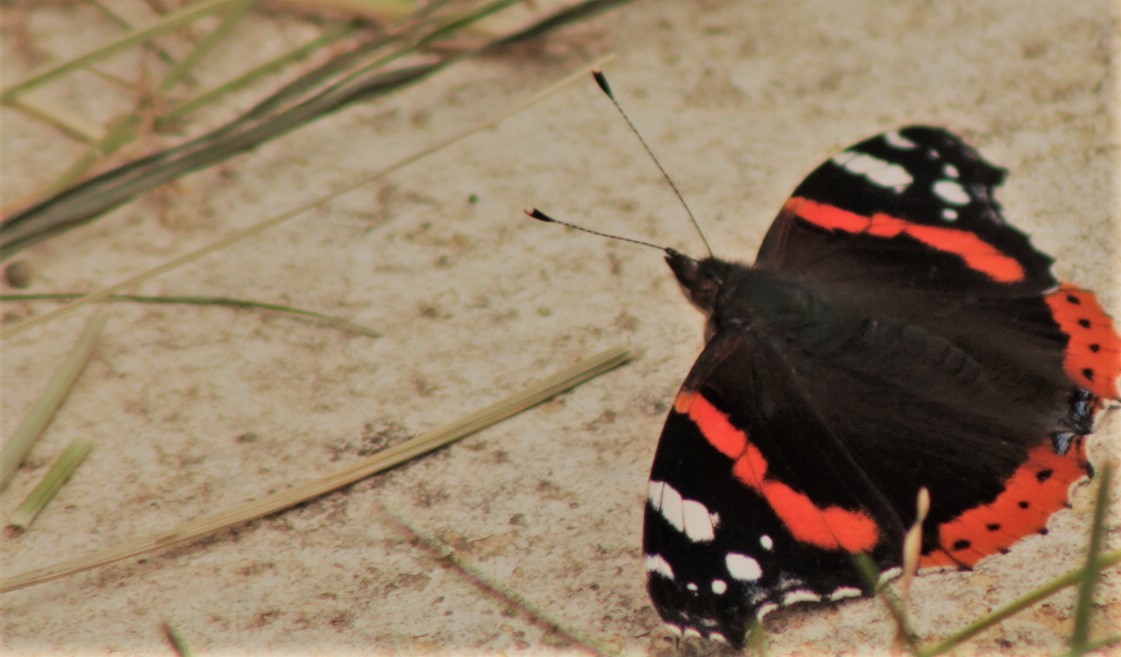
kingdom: Animalia
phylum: Arthropoda
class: Insecta
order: Lepidoptera
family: Nymphalidae
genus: Vanessa
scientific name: Vanessa atalanta
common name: Red admiral
